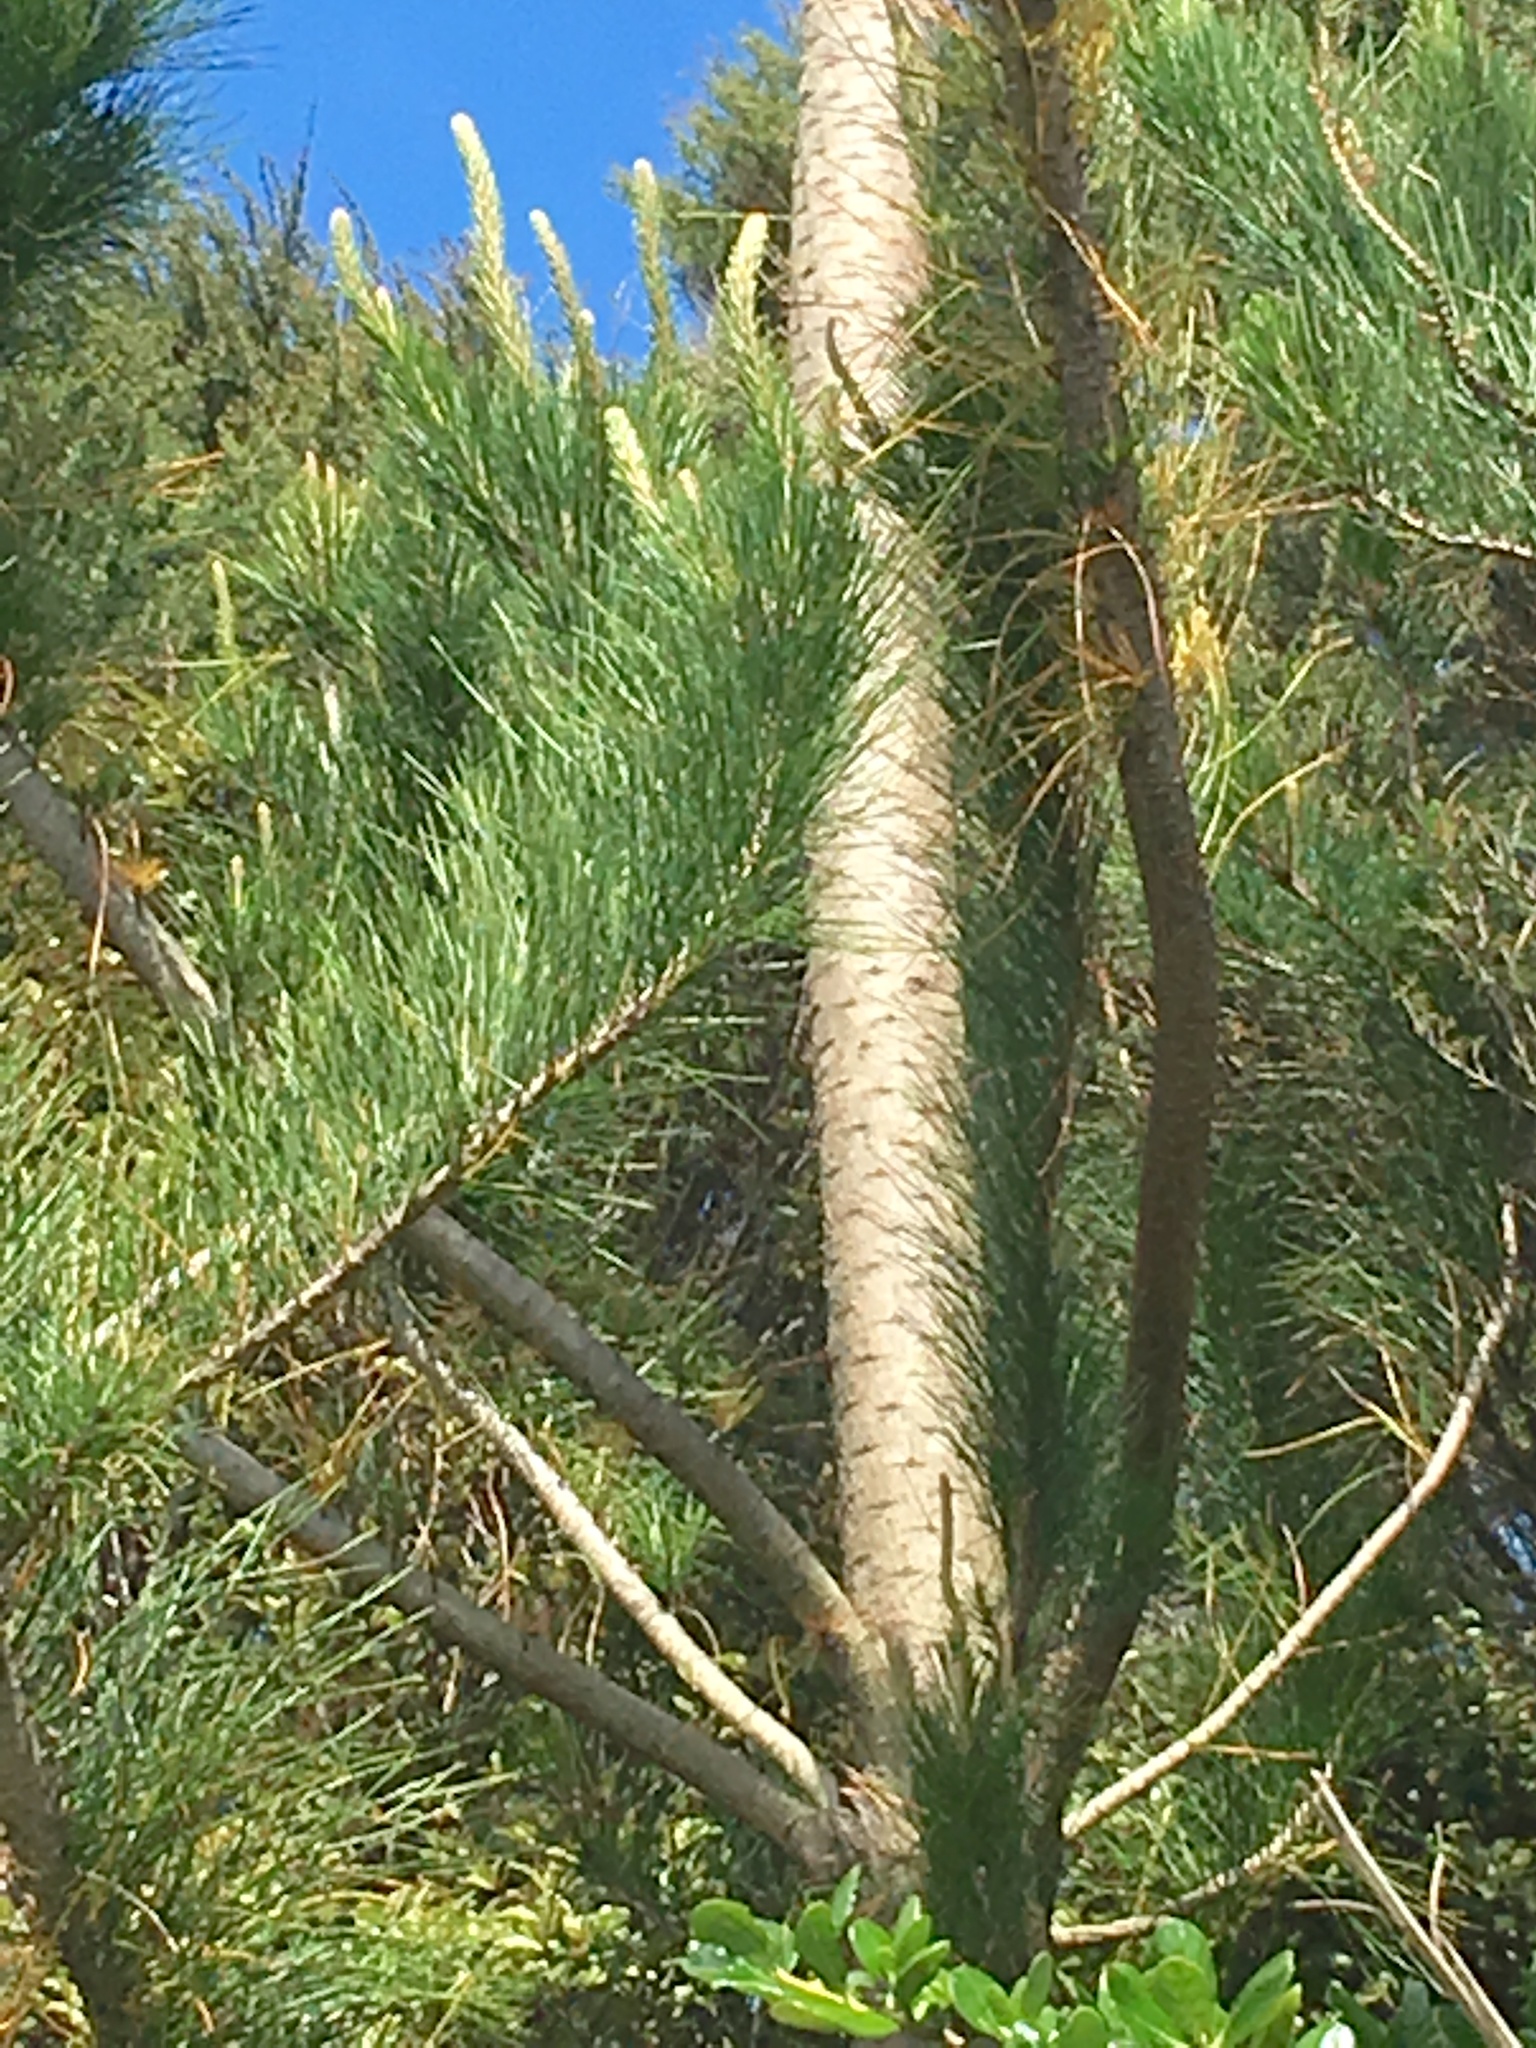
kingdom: Plantae
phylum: Tracheophyta
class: Pinopsida
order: Pinales
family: Pinaceae
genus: Pinus
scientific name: Pinus radiata
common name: Monterey pine
